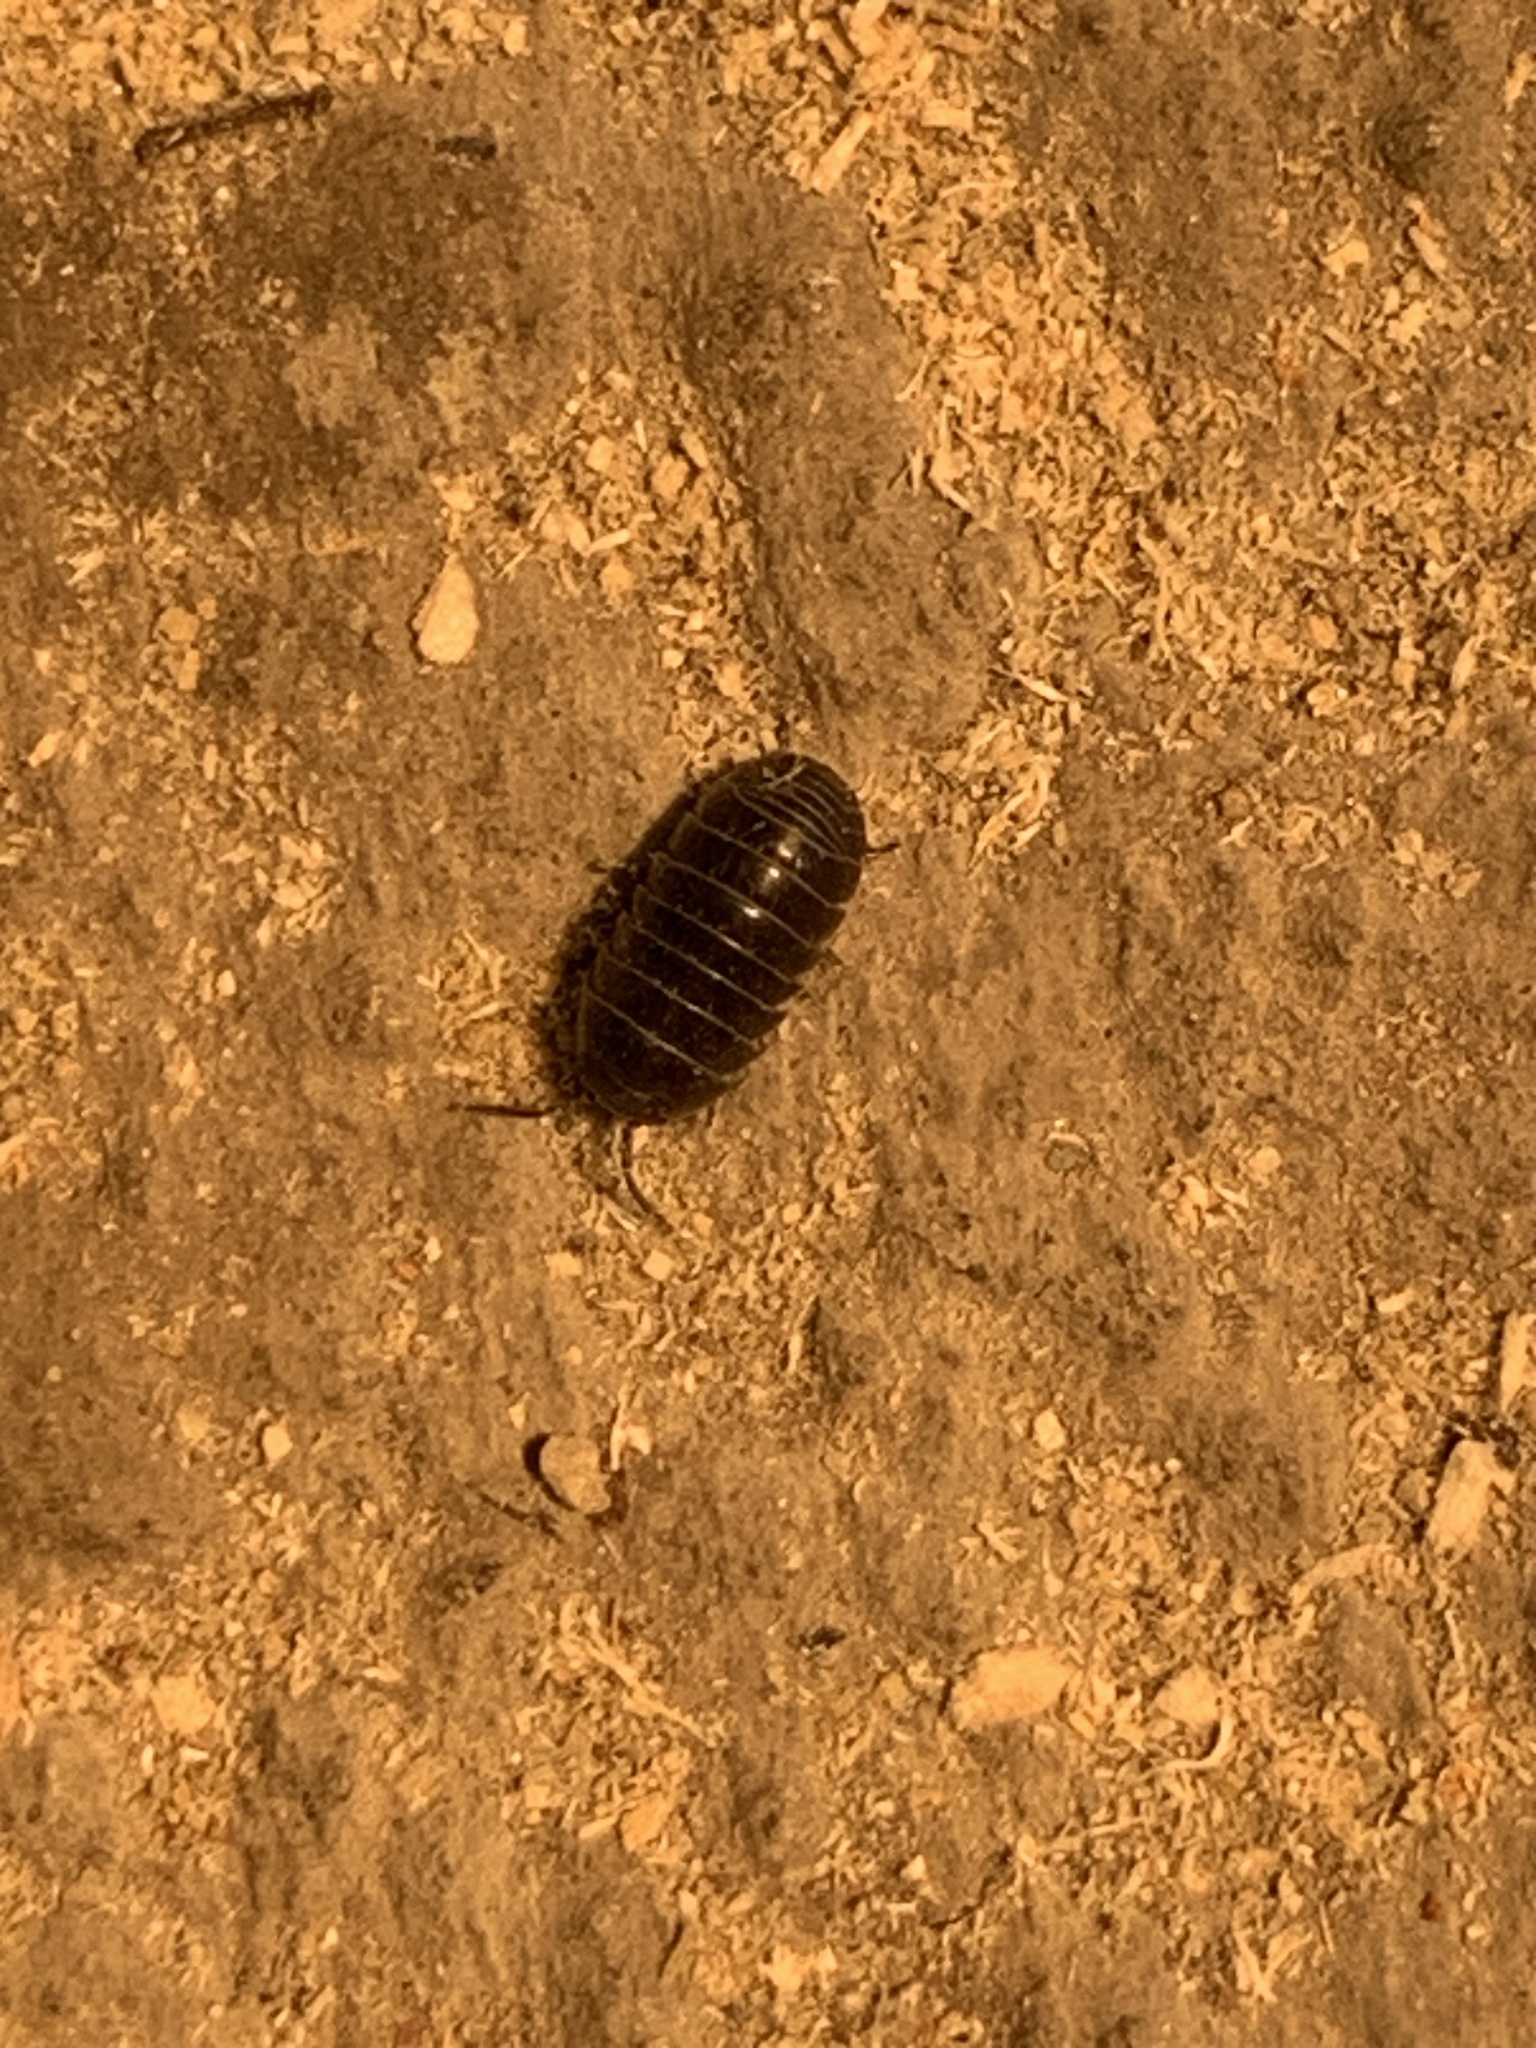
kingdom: Animalia
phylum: Arthropoda
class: Malacostraca
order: Isopoda
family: Armadillidiidae
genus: Armadillidium
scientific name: Armadillidium vulgare
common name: Common pill woodlouse
